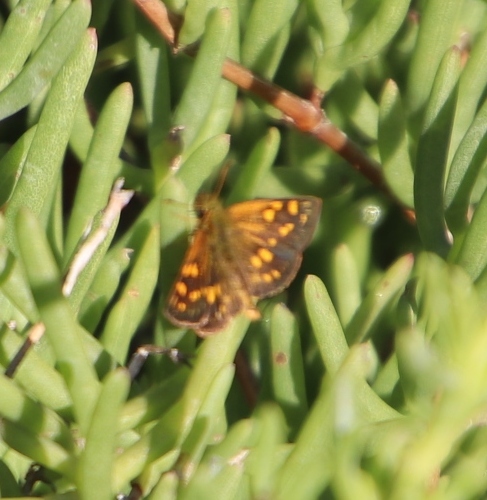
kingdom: Animalia
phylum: Arthropoda
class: Insecta
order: Lepidoptera
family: Hesperiidae
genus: Metisella
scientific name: Metisella malgacha
